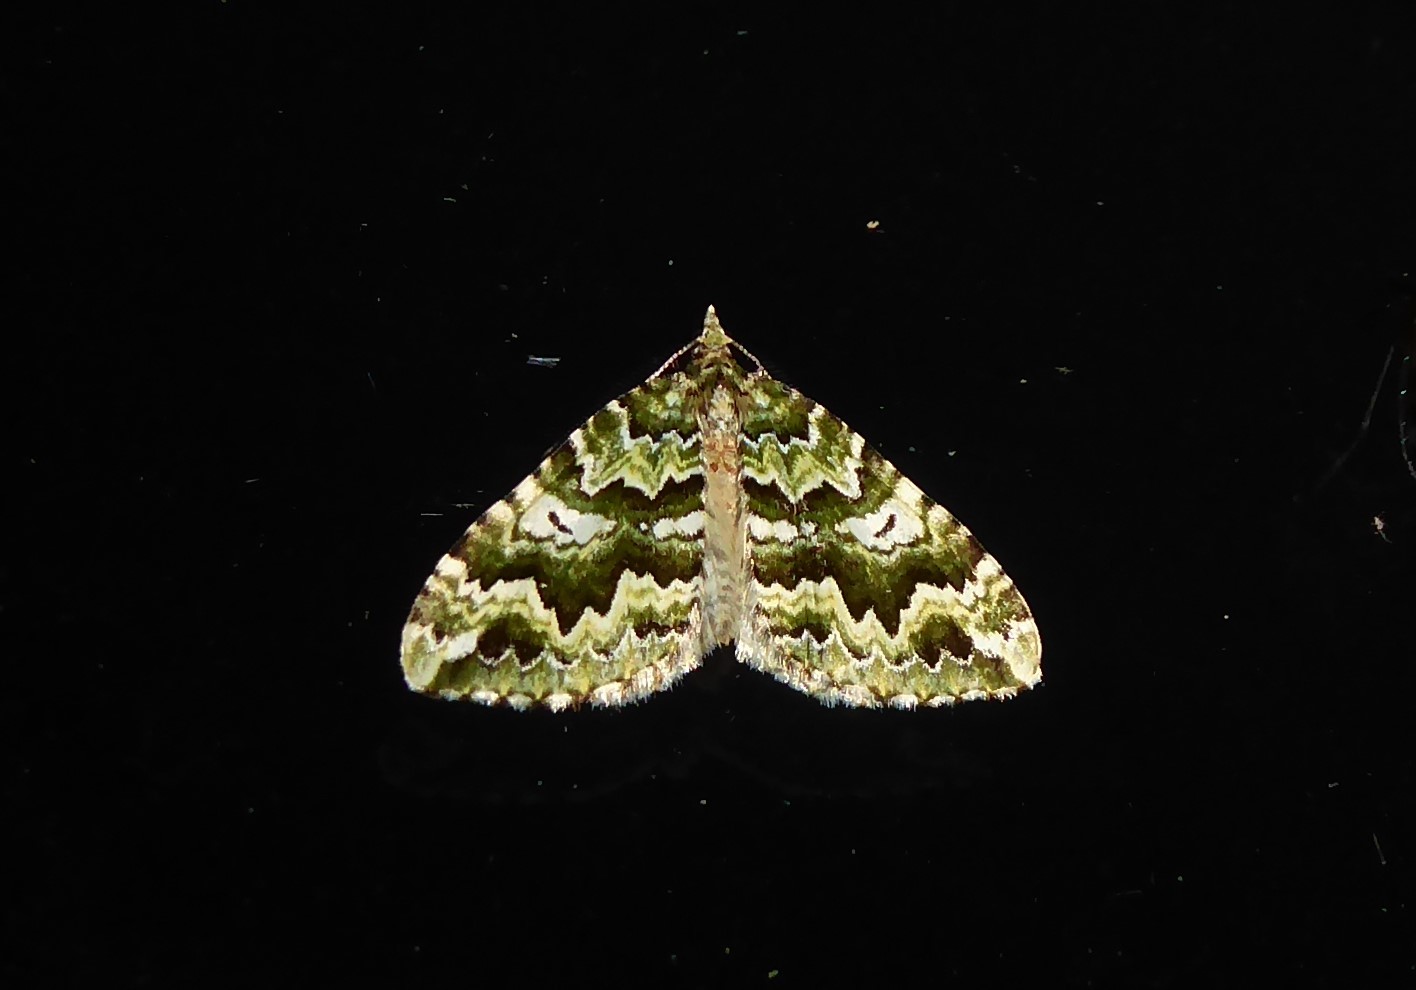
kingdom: Animalia
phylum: Arthropoda
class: Insecta
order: Lepidoptera
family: Geometridae
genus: Asaphodes
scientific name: Asaphodes beata
